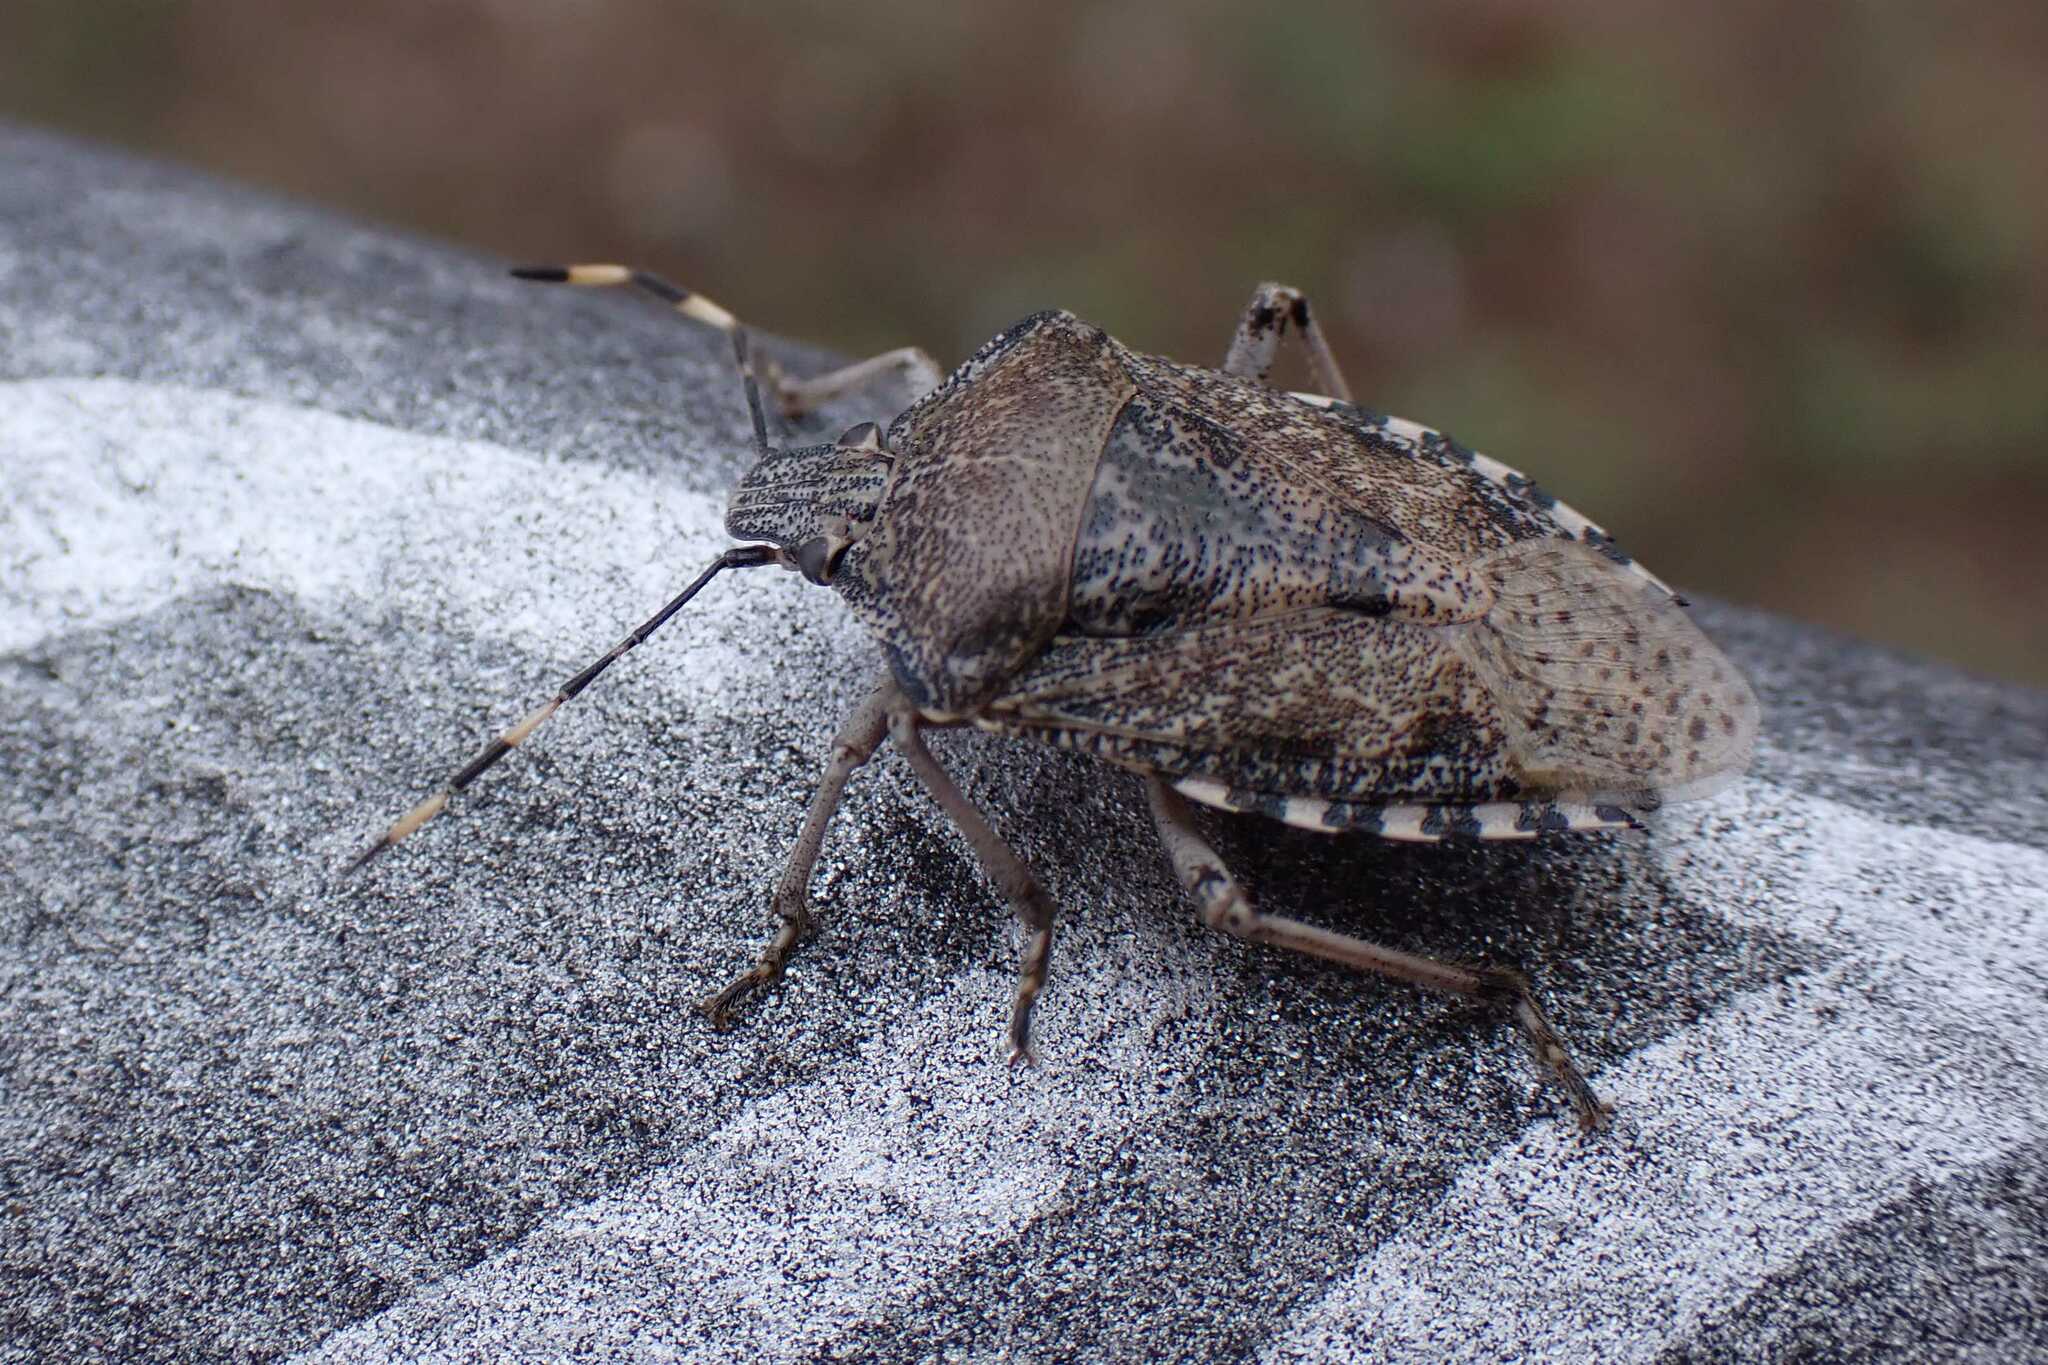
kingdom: Animalia
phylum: Arthropoda
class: Insecta
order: Hemiptera
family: Pentatomidae
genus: Rhaphigaster
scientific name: Rhaphigaster nebulosa
